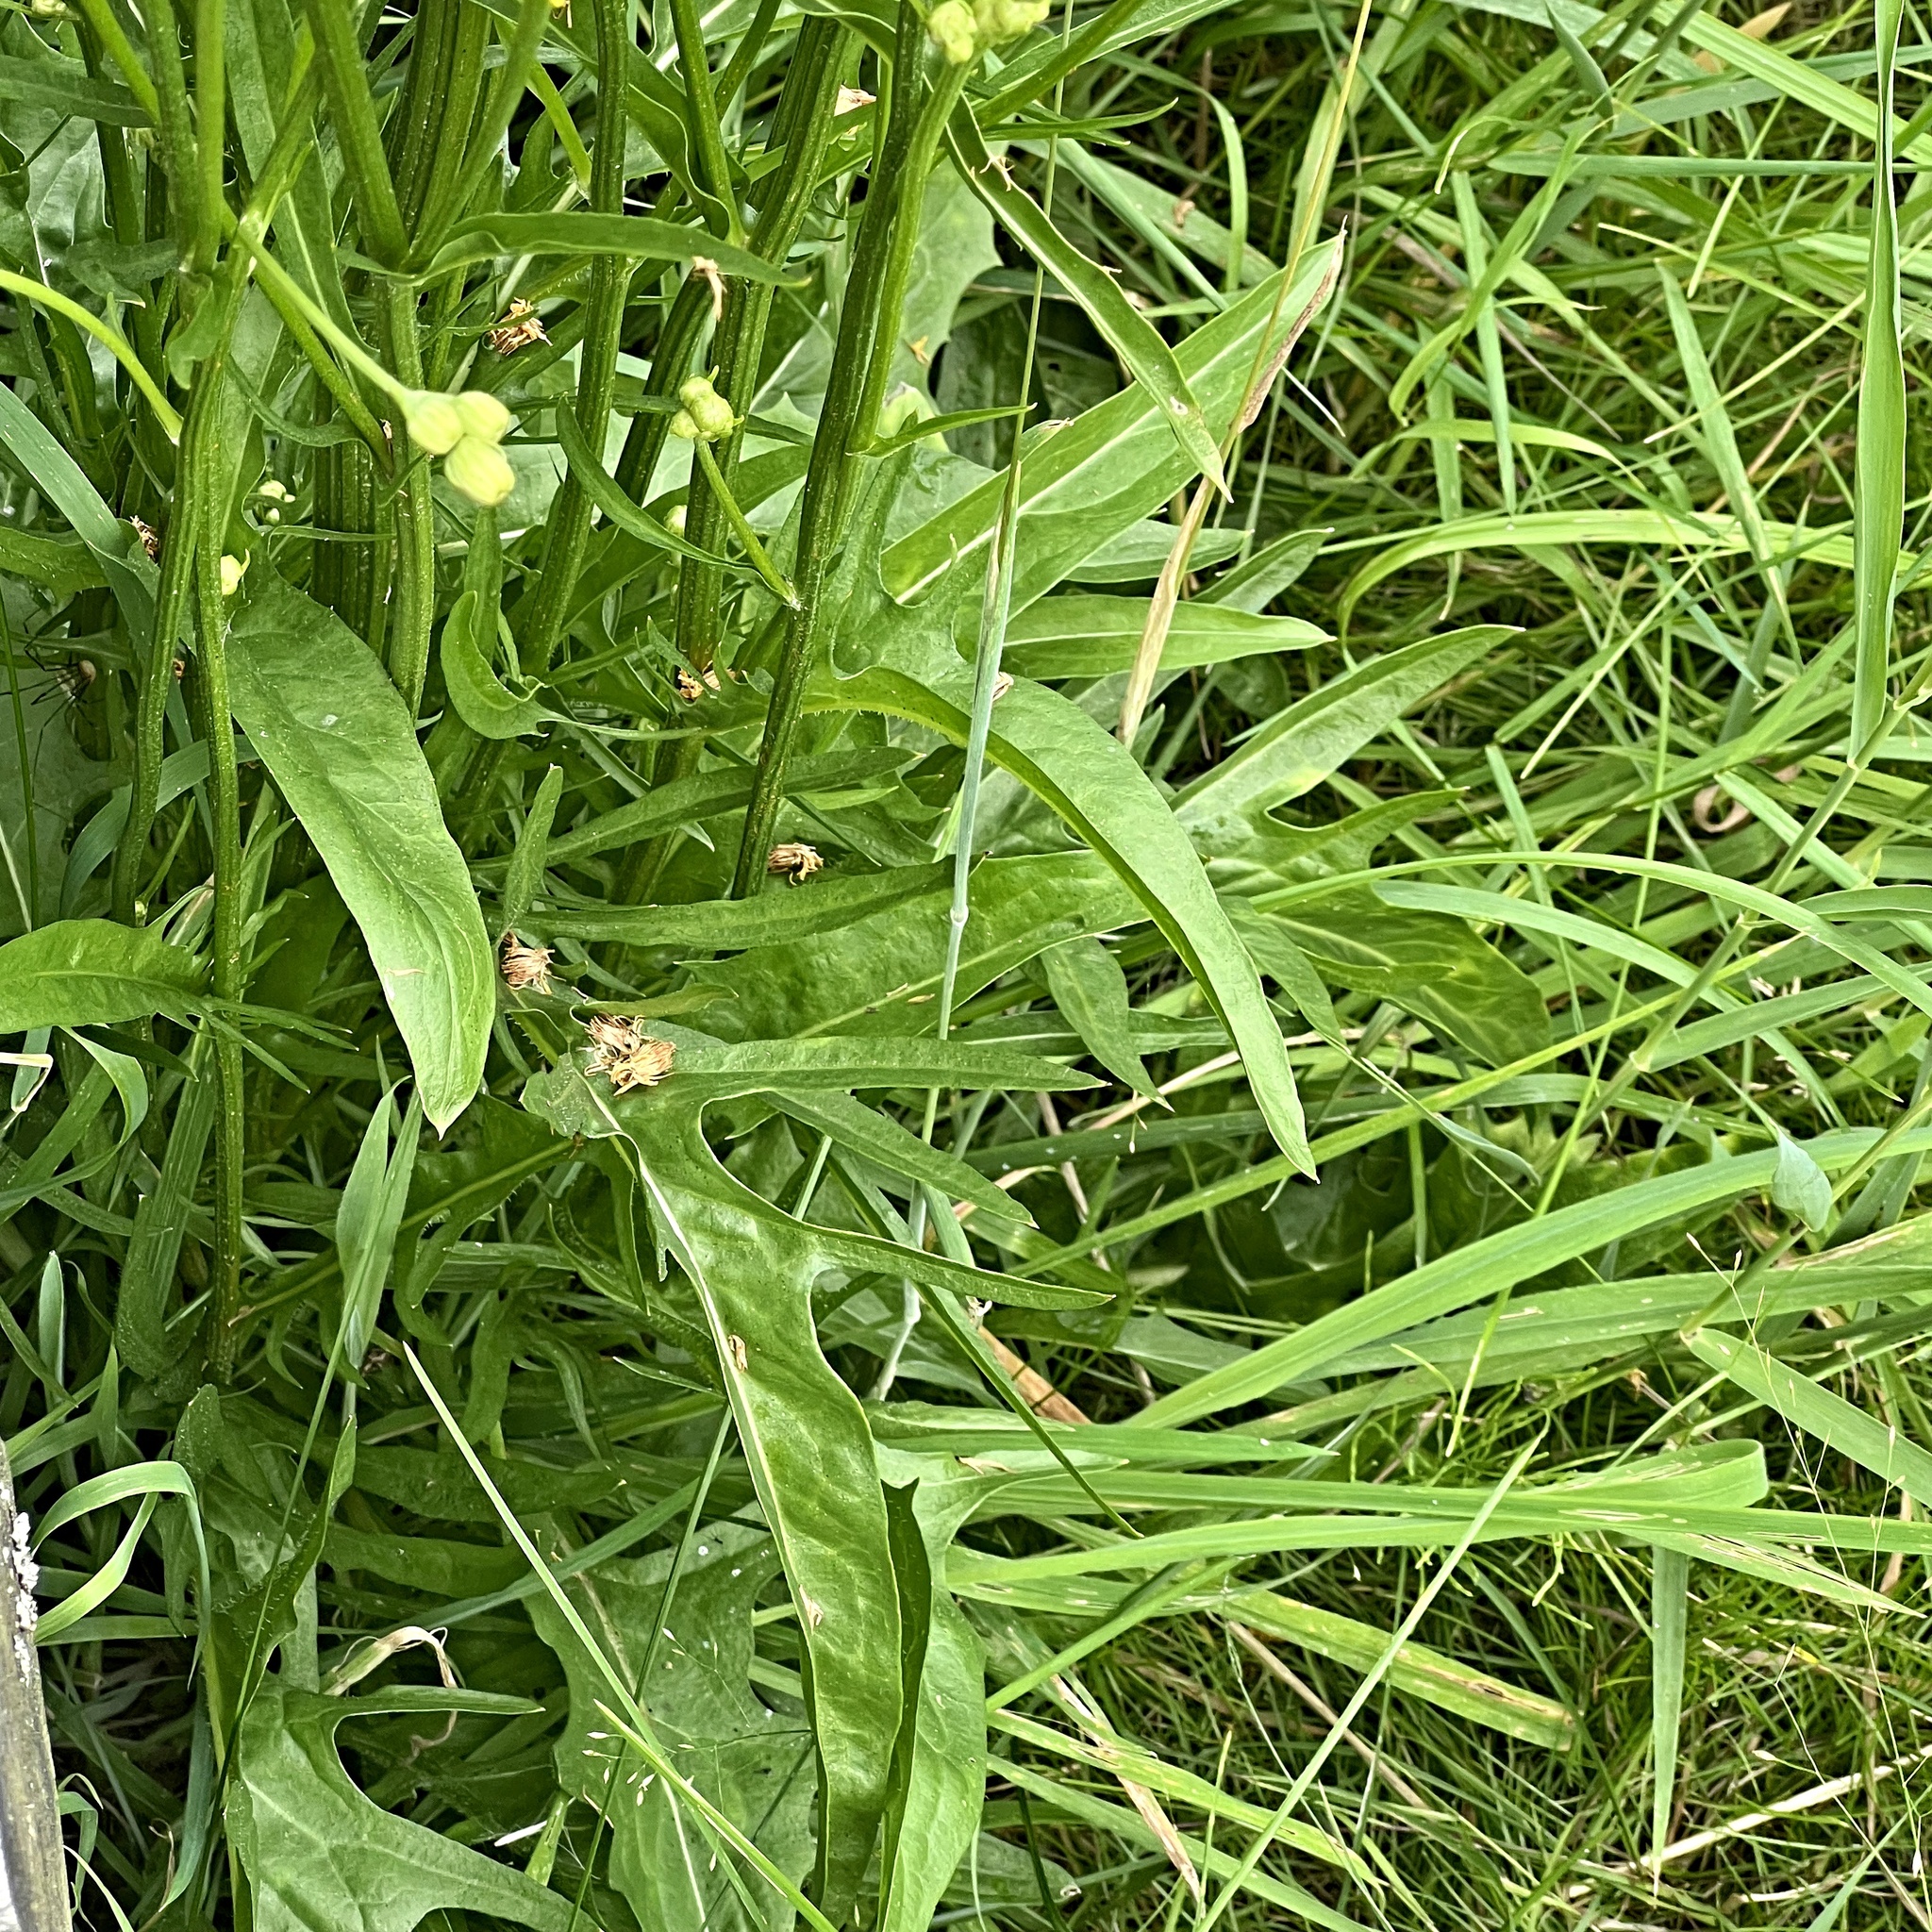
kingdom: Plantae
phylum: Tracheophyta
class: Magnoliopsida
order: Asterales
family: Asteraceae
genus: Crepis
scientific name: Crepis biennis
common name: Rough hawk's-beard
